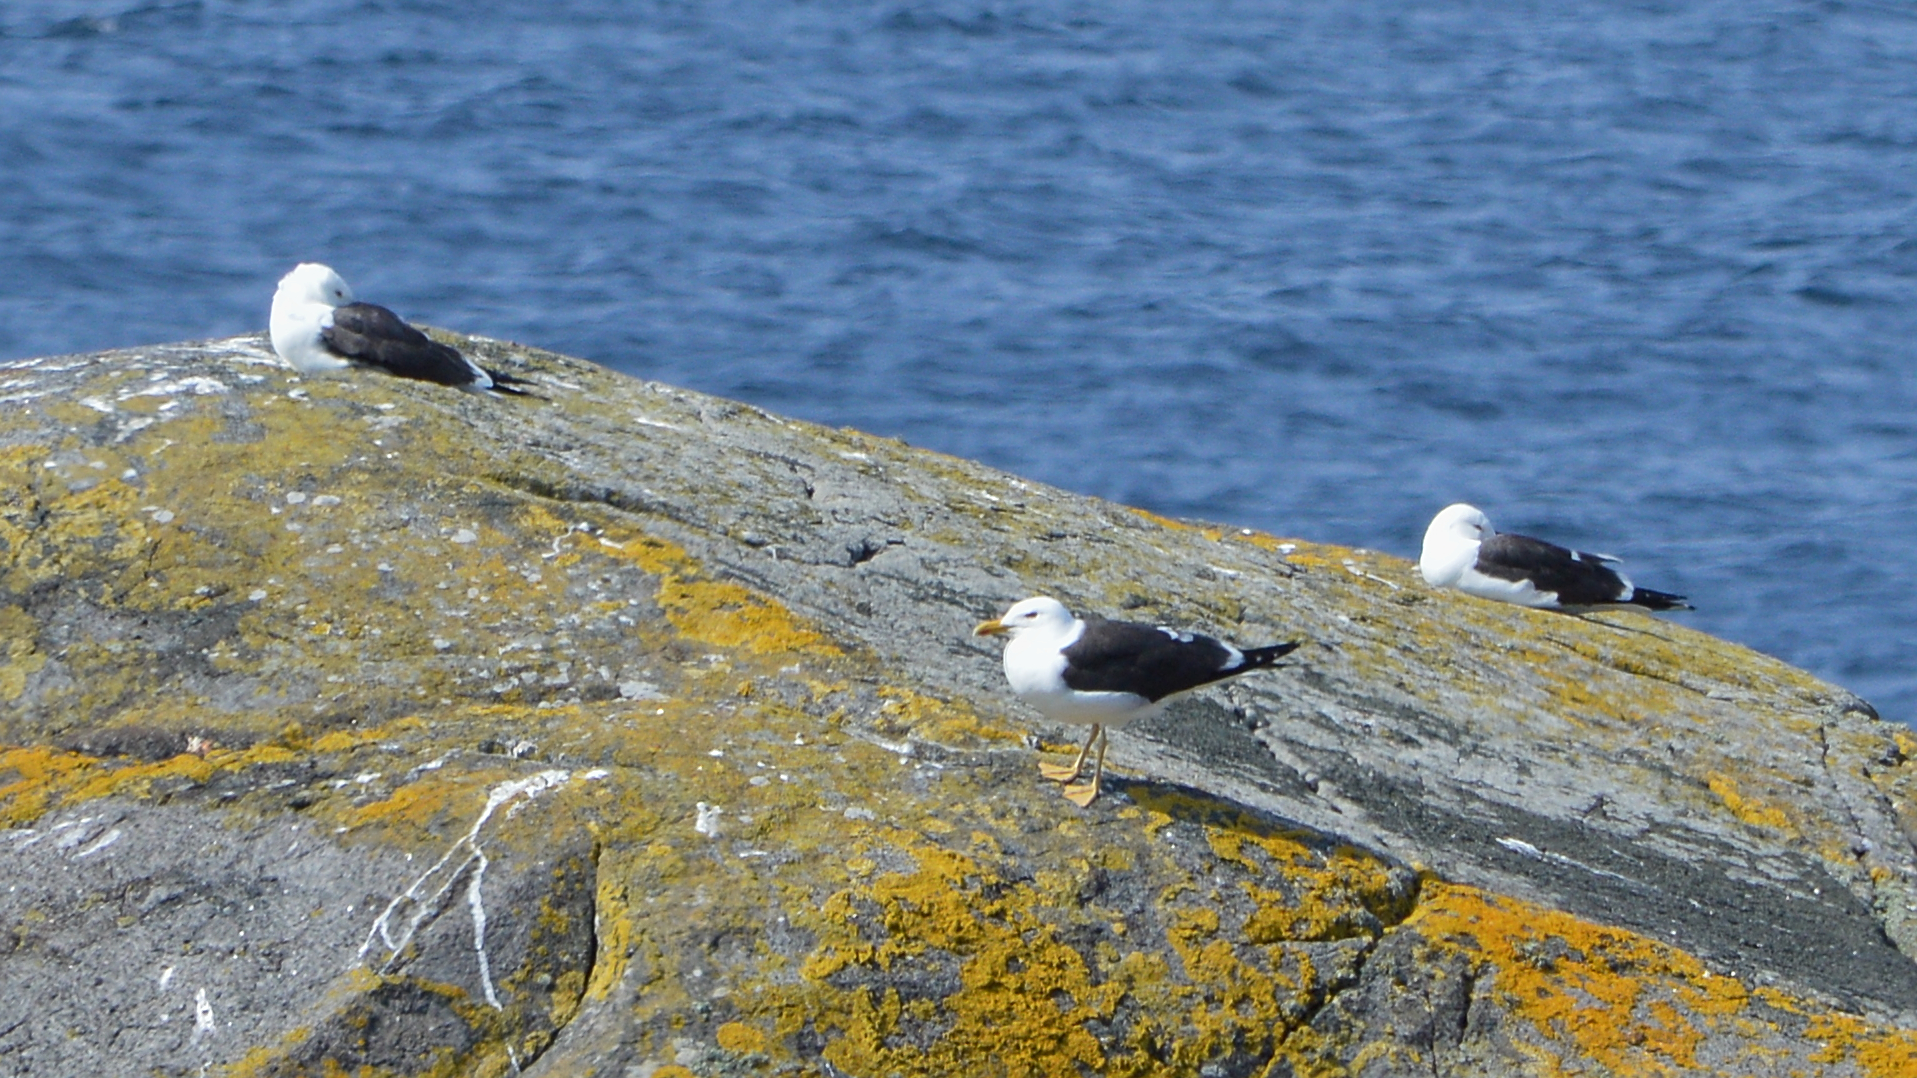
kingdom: Animalia
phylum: Chordata
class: Aves
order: Charadriiformes
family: Laridae
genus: Larus
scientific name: Larus fuscus
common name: Lesser black-backed gull
